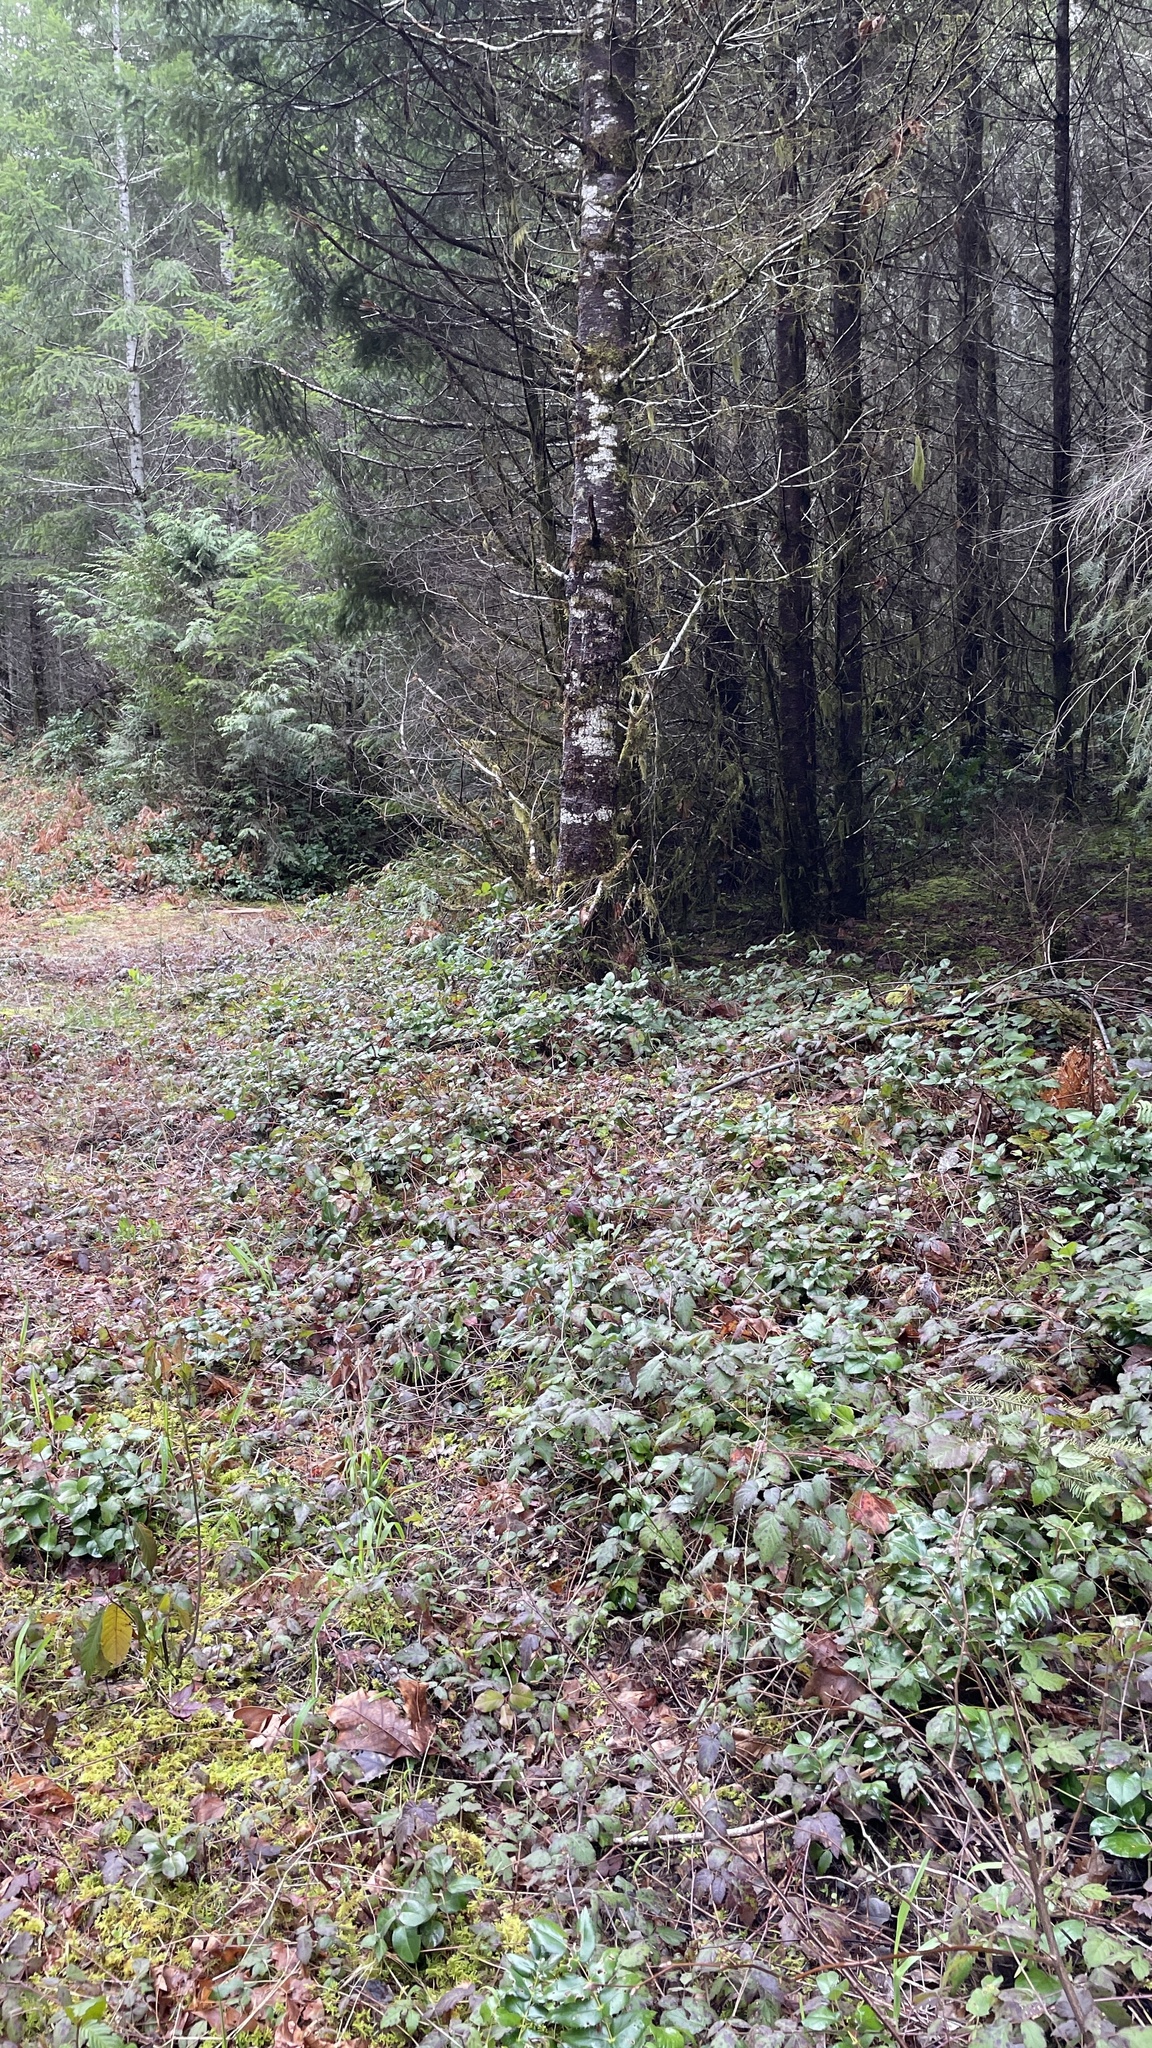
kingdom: Fungi
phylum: Ascomycota
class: Pezizomycetes
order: Pezizales
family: Tuberaceae
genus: Tuber
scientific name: Tuber gibbosum
